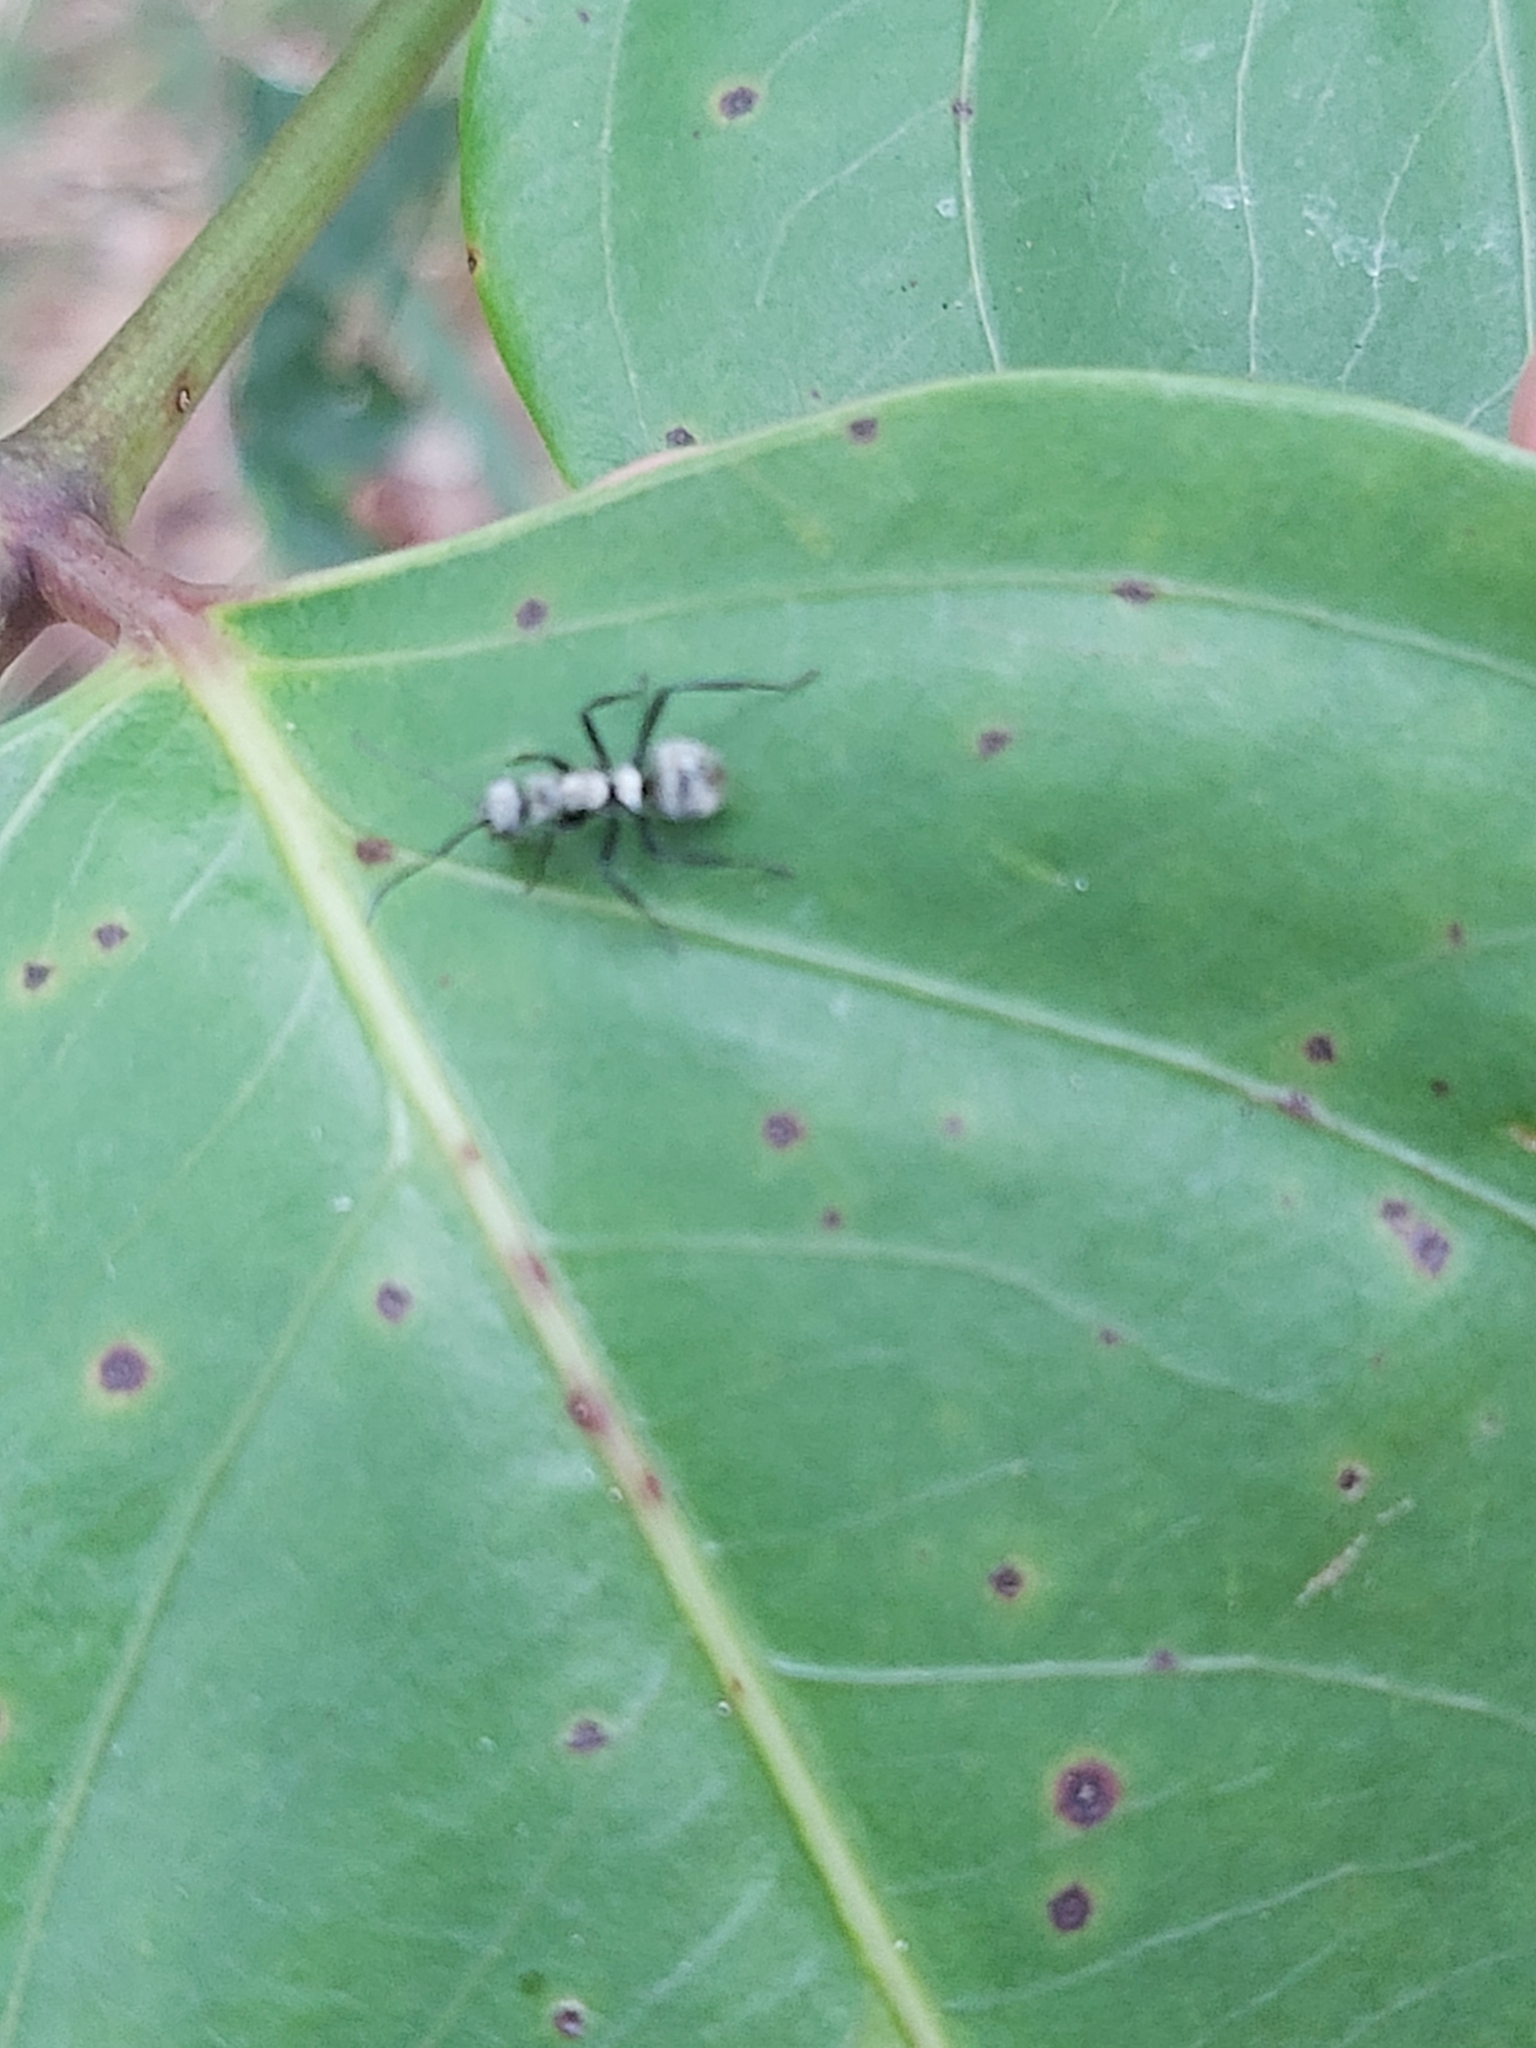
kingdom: Animalia
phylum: Arthropoda
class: Insecta
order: Hymenoptera
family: Formicidae
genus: Polyrhachis
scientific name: Polyrhachis cupreata
